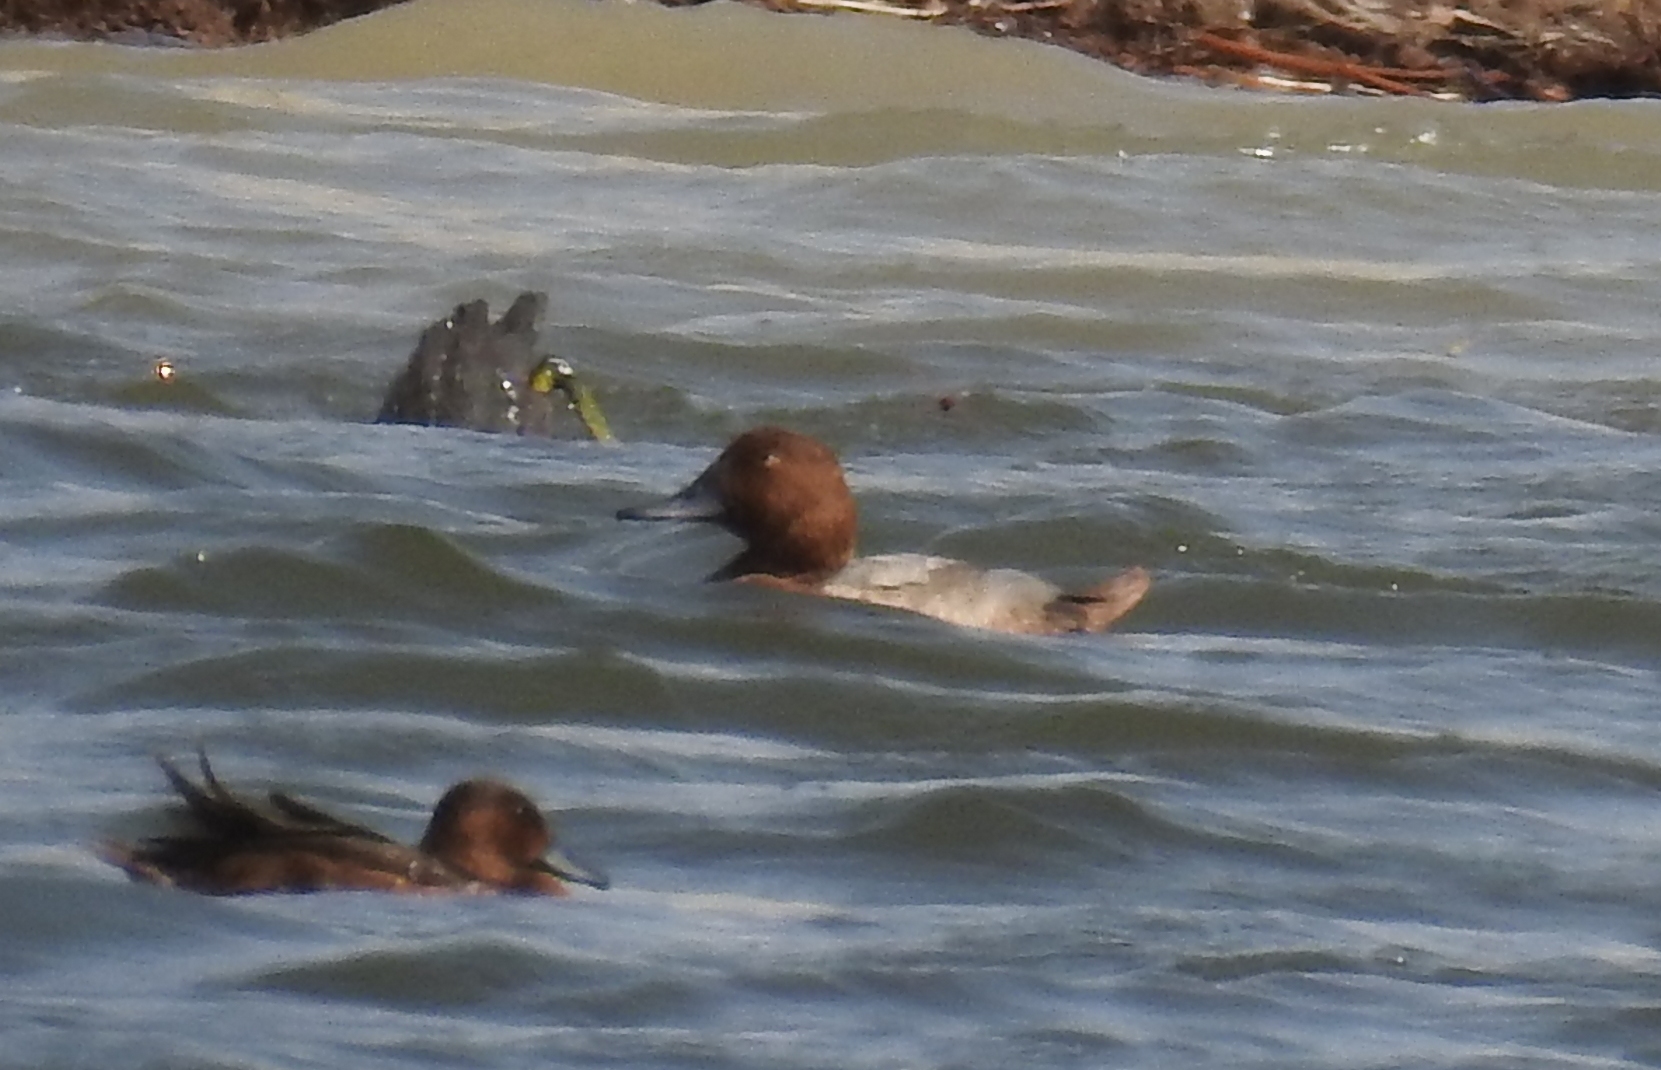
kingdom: Animalia
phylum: Chordata
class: Aves
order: Anseriformes
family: Anatidae
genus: Aythya
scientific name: Aythya ferina
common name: Common pochard
